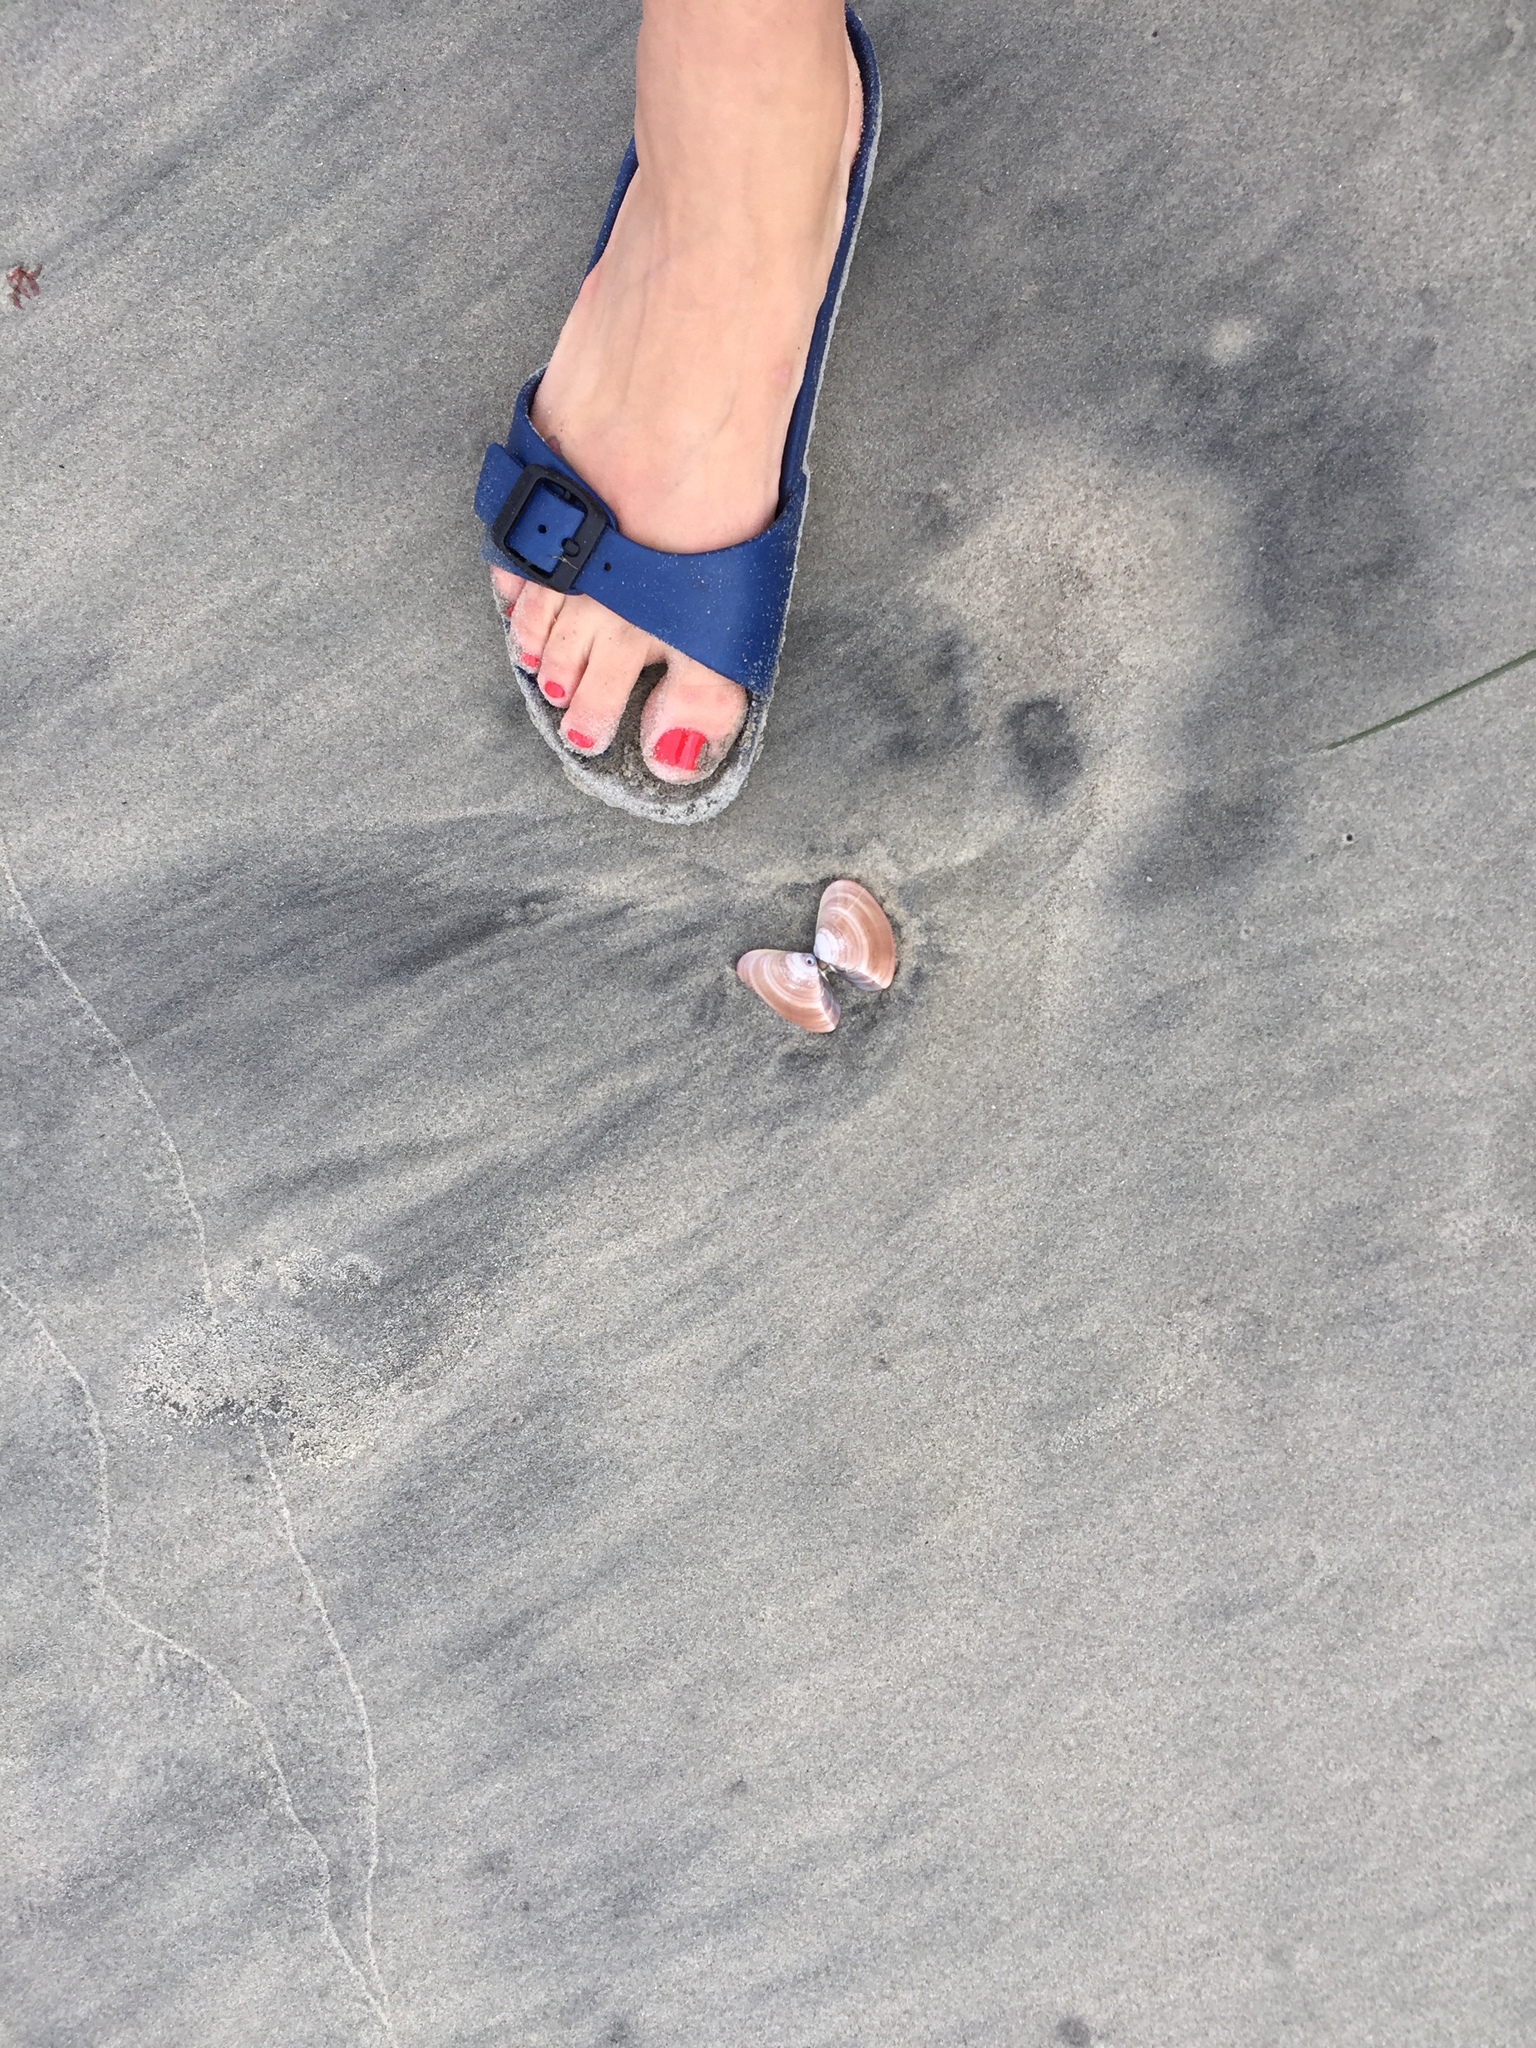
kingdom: Animalia
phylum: Mollusca
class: Bivalvia
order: Venerida
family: Veneridae
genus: Tivela
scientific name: Tivela stultorum
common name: Pismo clam
